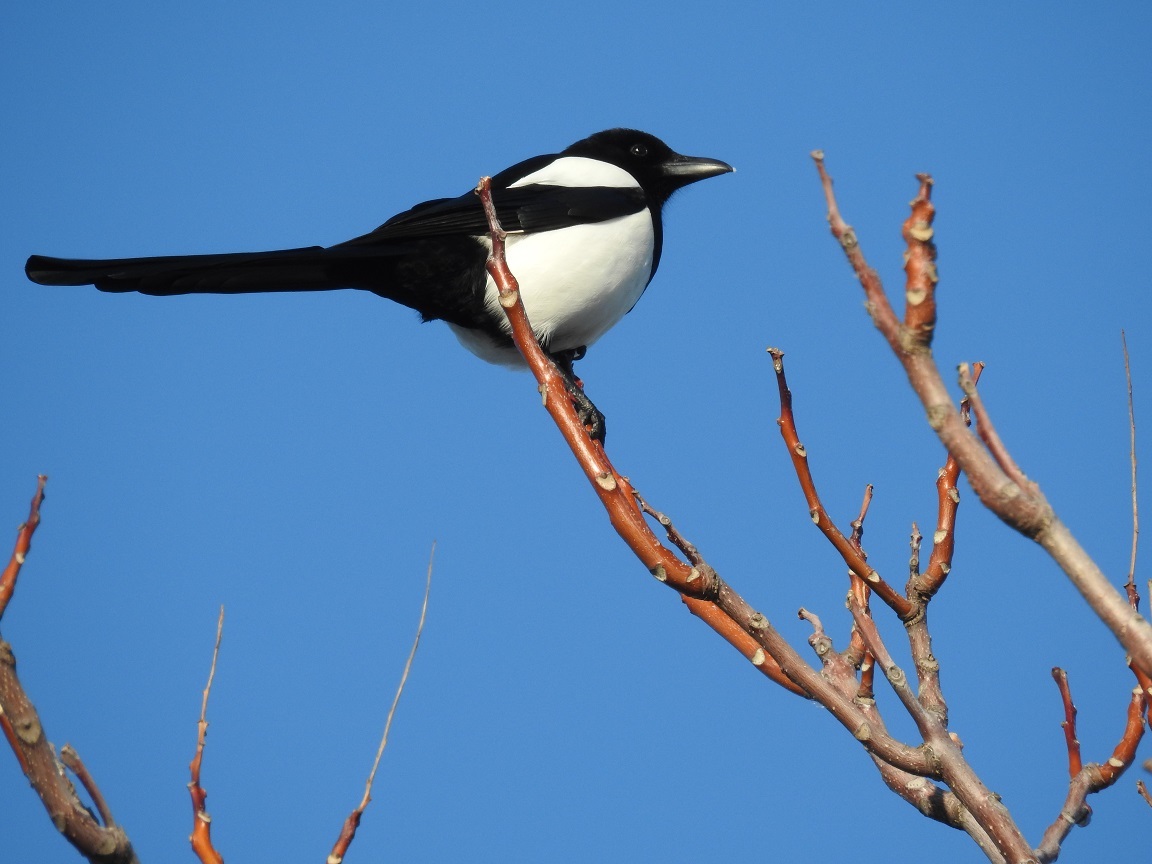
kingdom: Animalia
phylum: Chordata
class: Aves
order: Passeriformes
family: Corvidae
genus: Pica
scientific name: Pica pica
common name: Eurasian magpie
